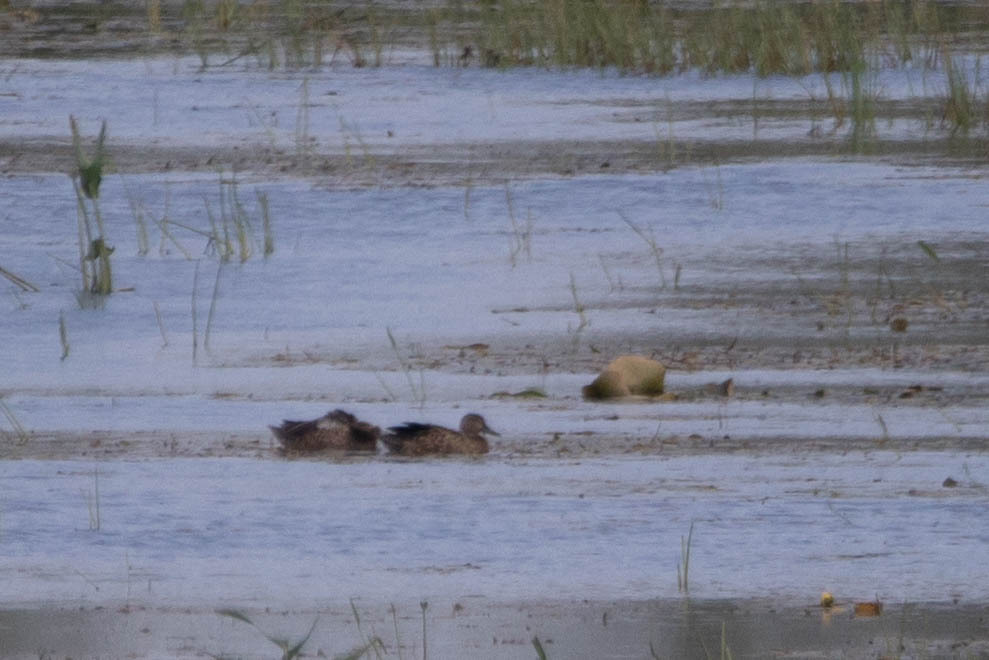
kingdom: Animalia
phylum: Chordata
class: Aves
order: Anseriformes
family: Anatidae
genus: Spatula
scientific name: Spatula discors
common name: Blue-winged teal
